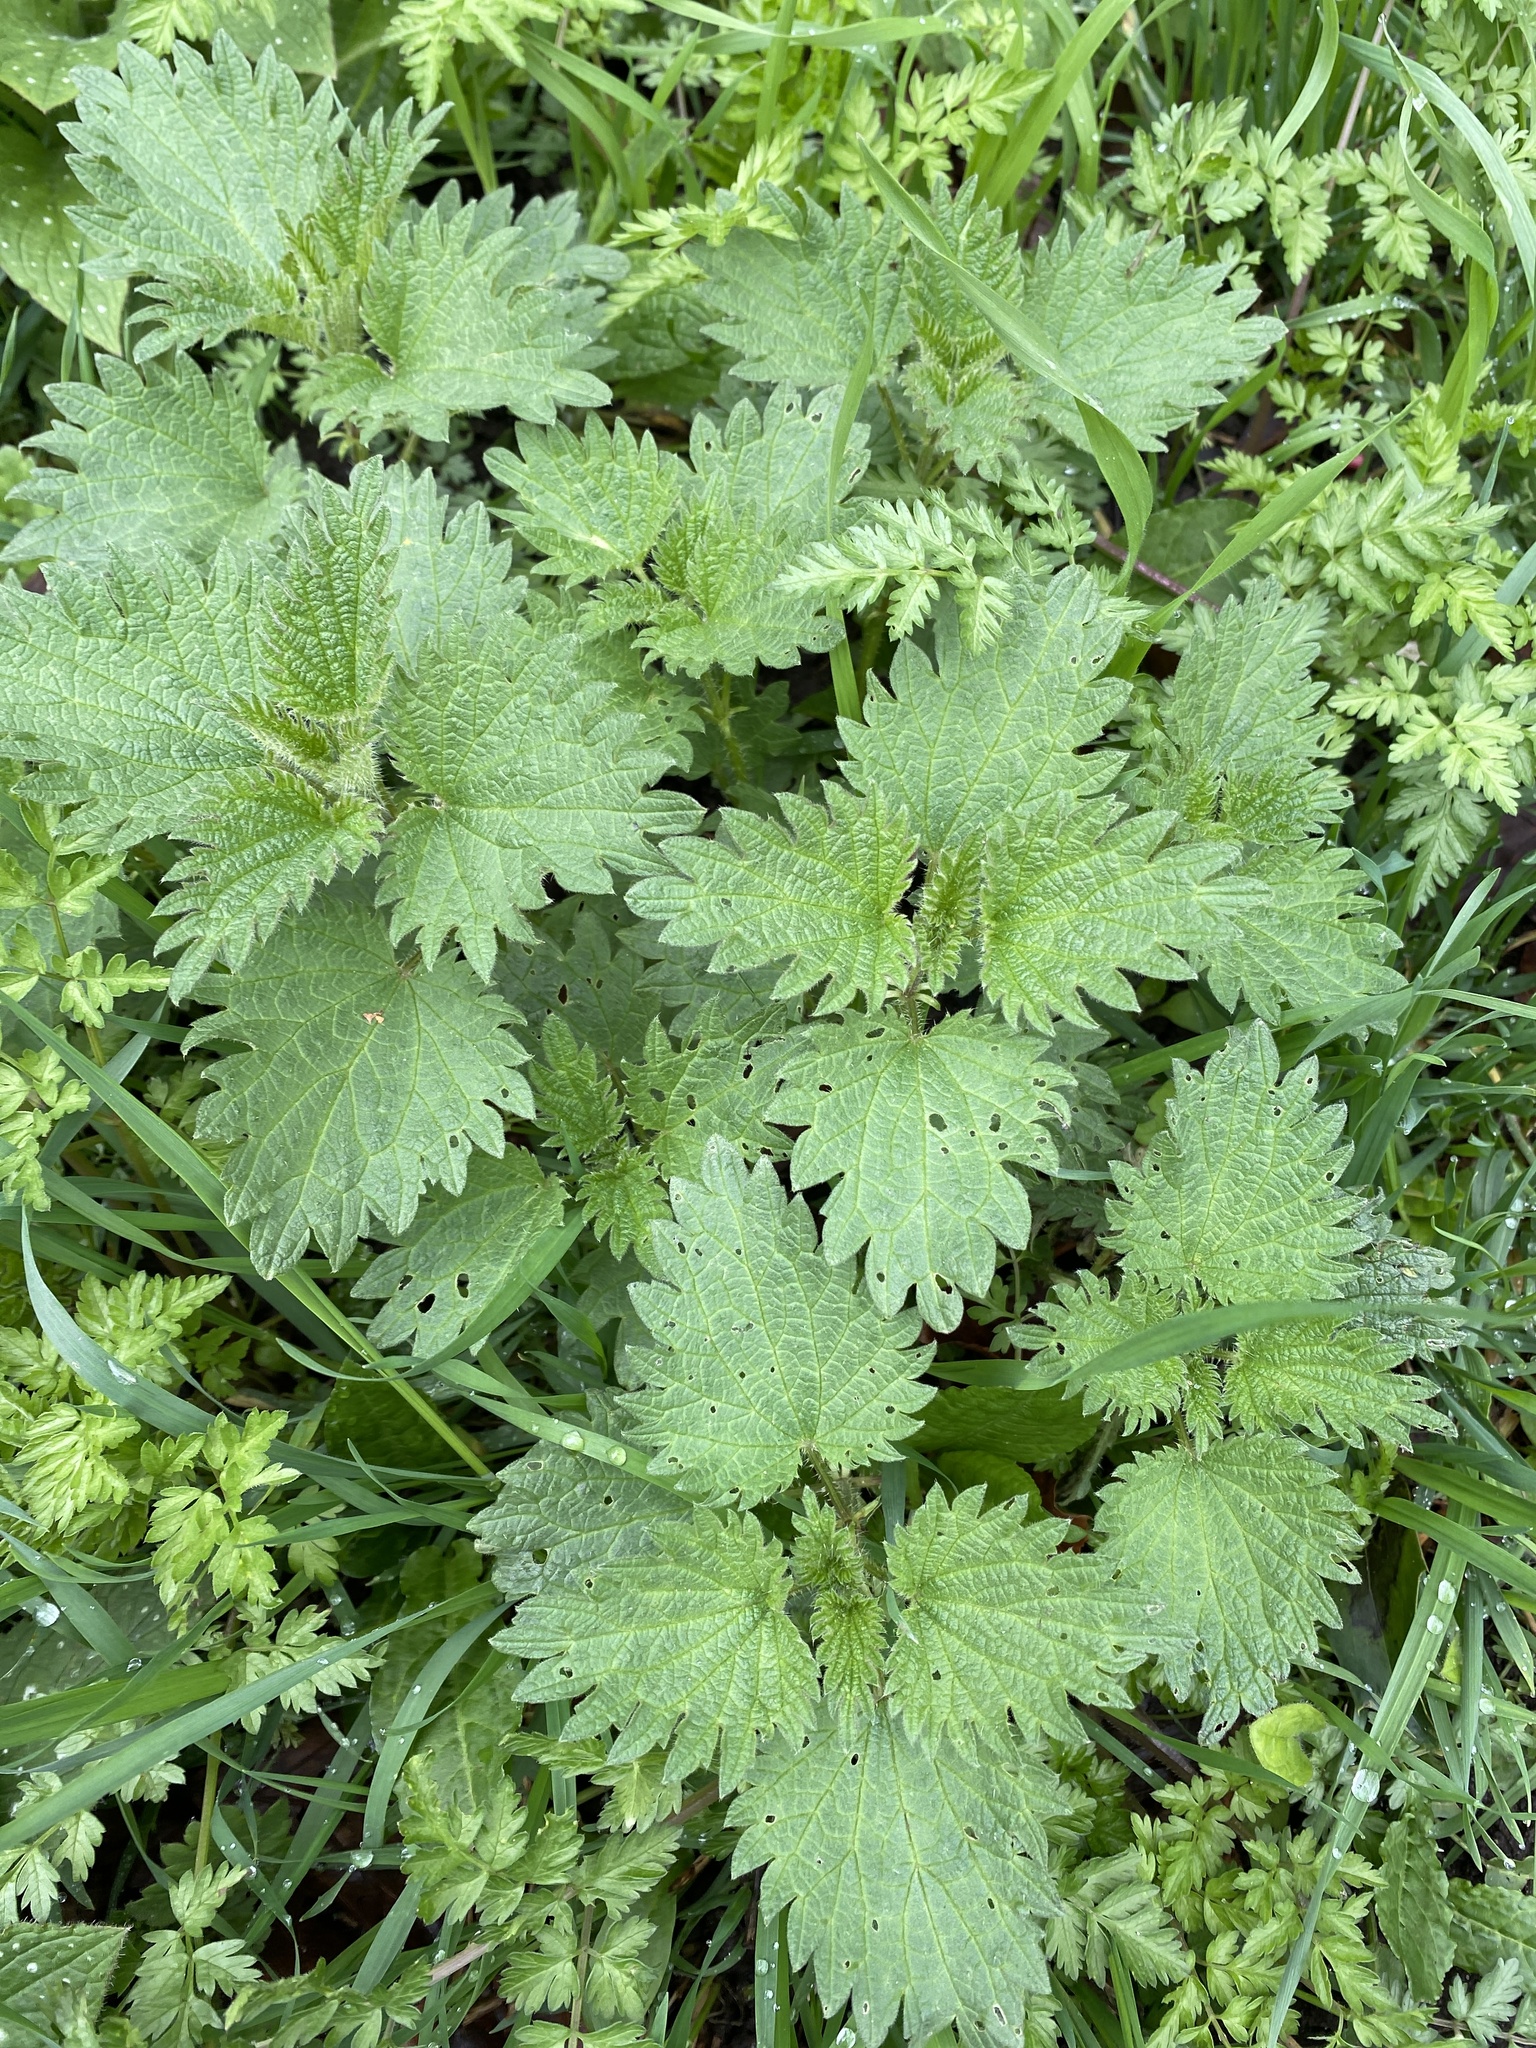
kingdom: Plantae
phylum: Tracheophyta
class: Magnoliopsida
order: Rosales
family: Urticaceae
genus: Urtica
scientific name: Urtica dioica
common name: Common nettle
